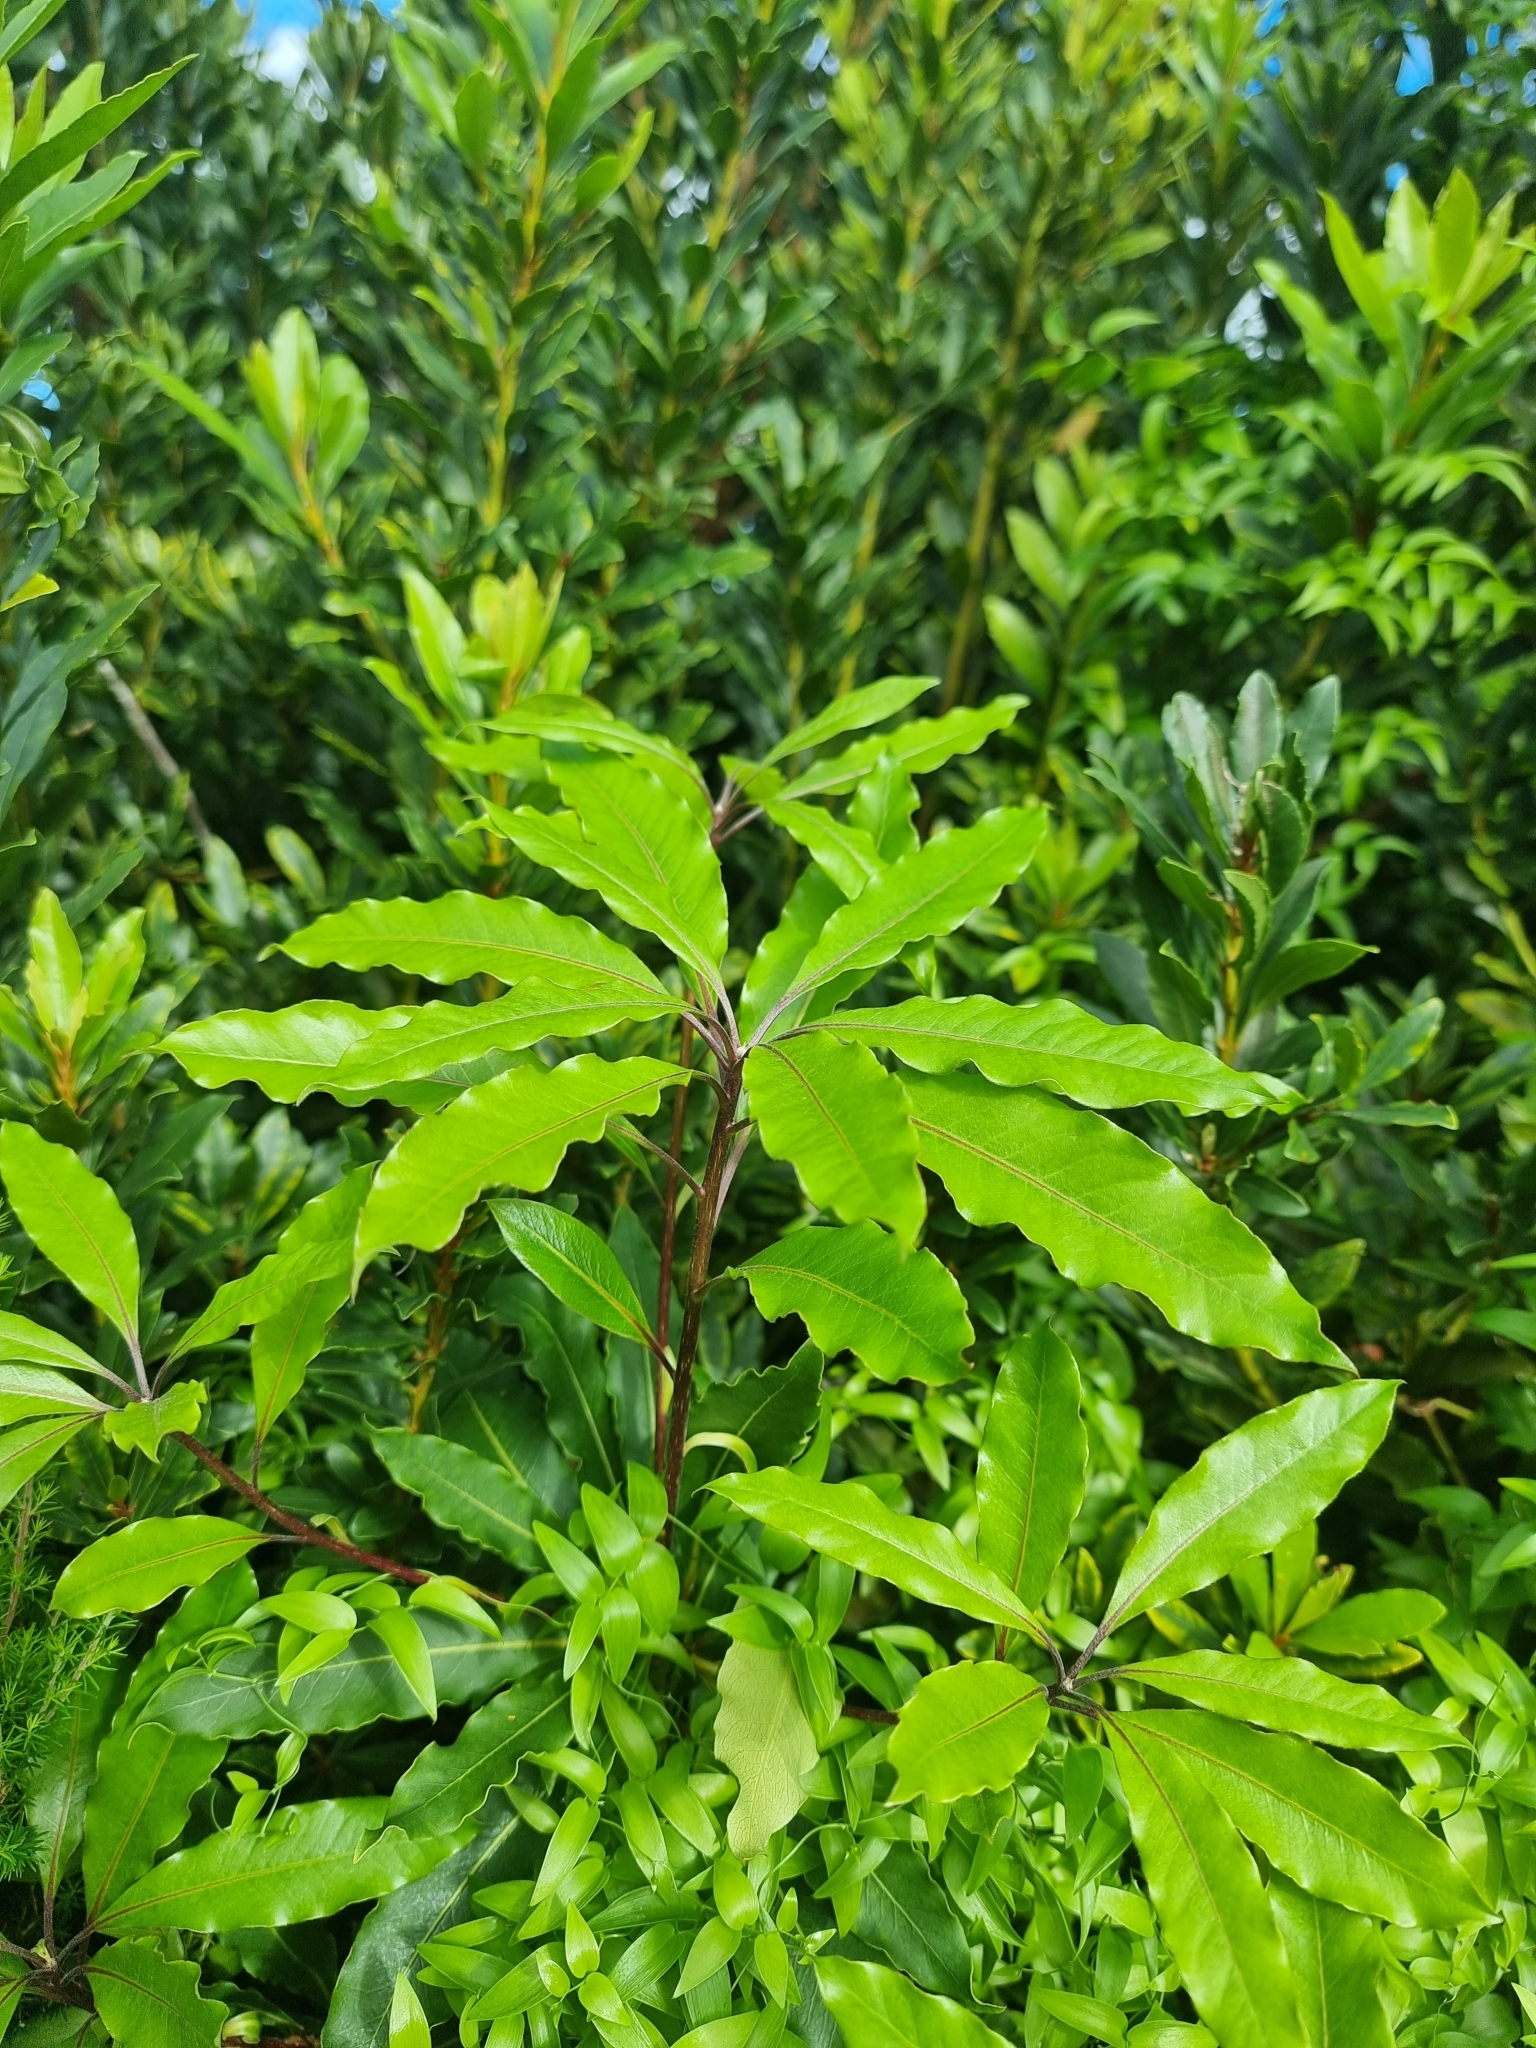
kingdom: Plantae
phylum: Tracheophyta
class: Magnoliopsida
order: Apiales
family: Pittosporaceae
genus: Pittosporum
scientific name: Pittosporum undulatum
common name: Australian cheesewood
